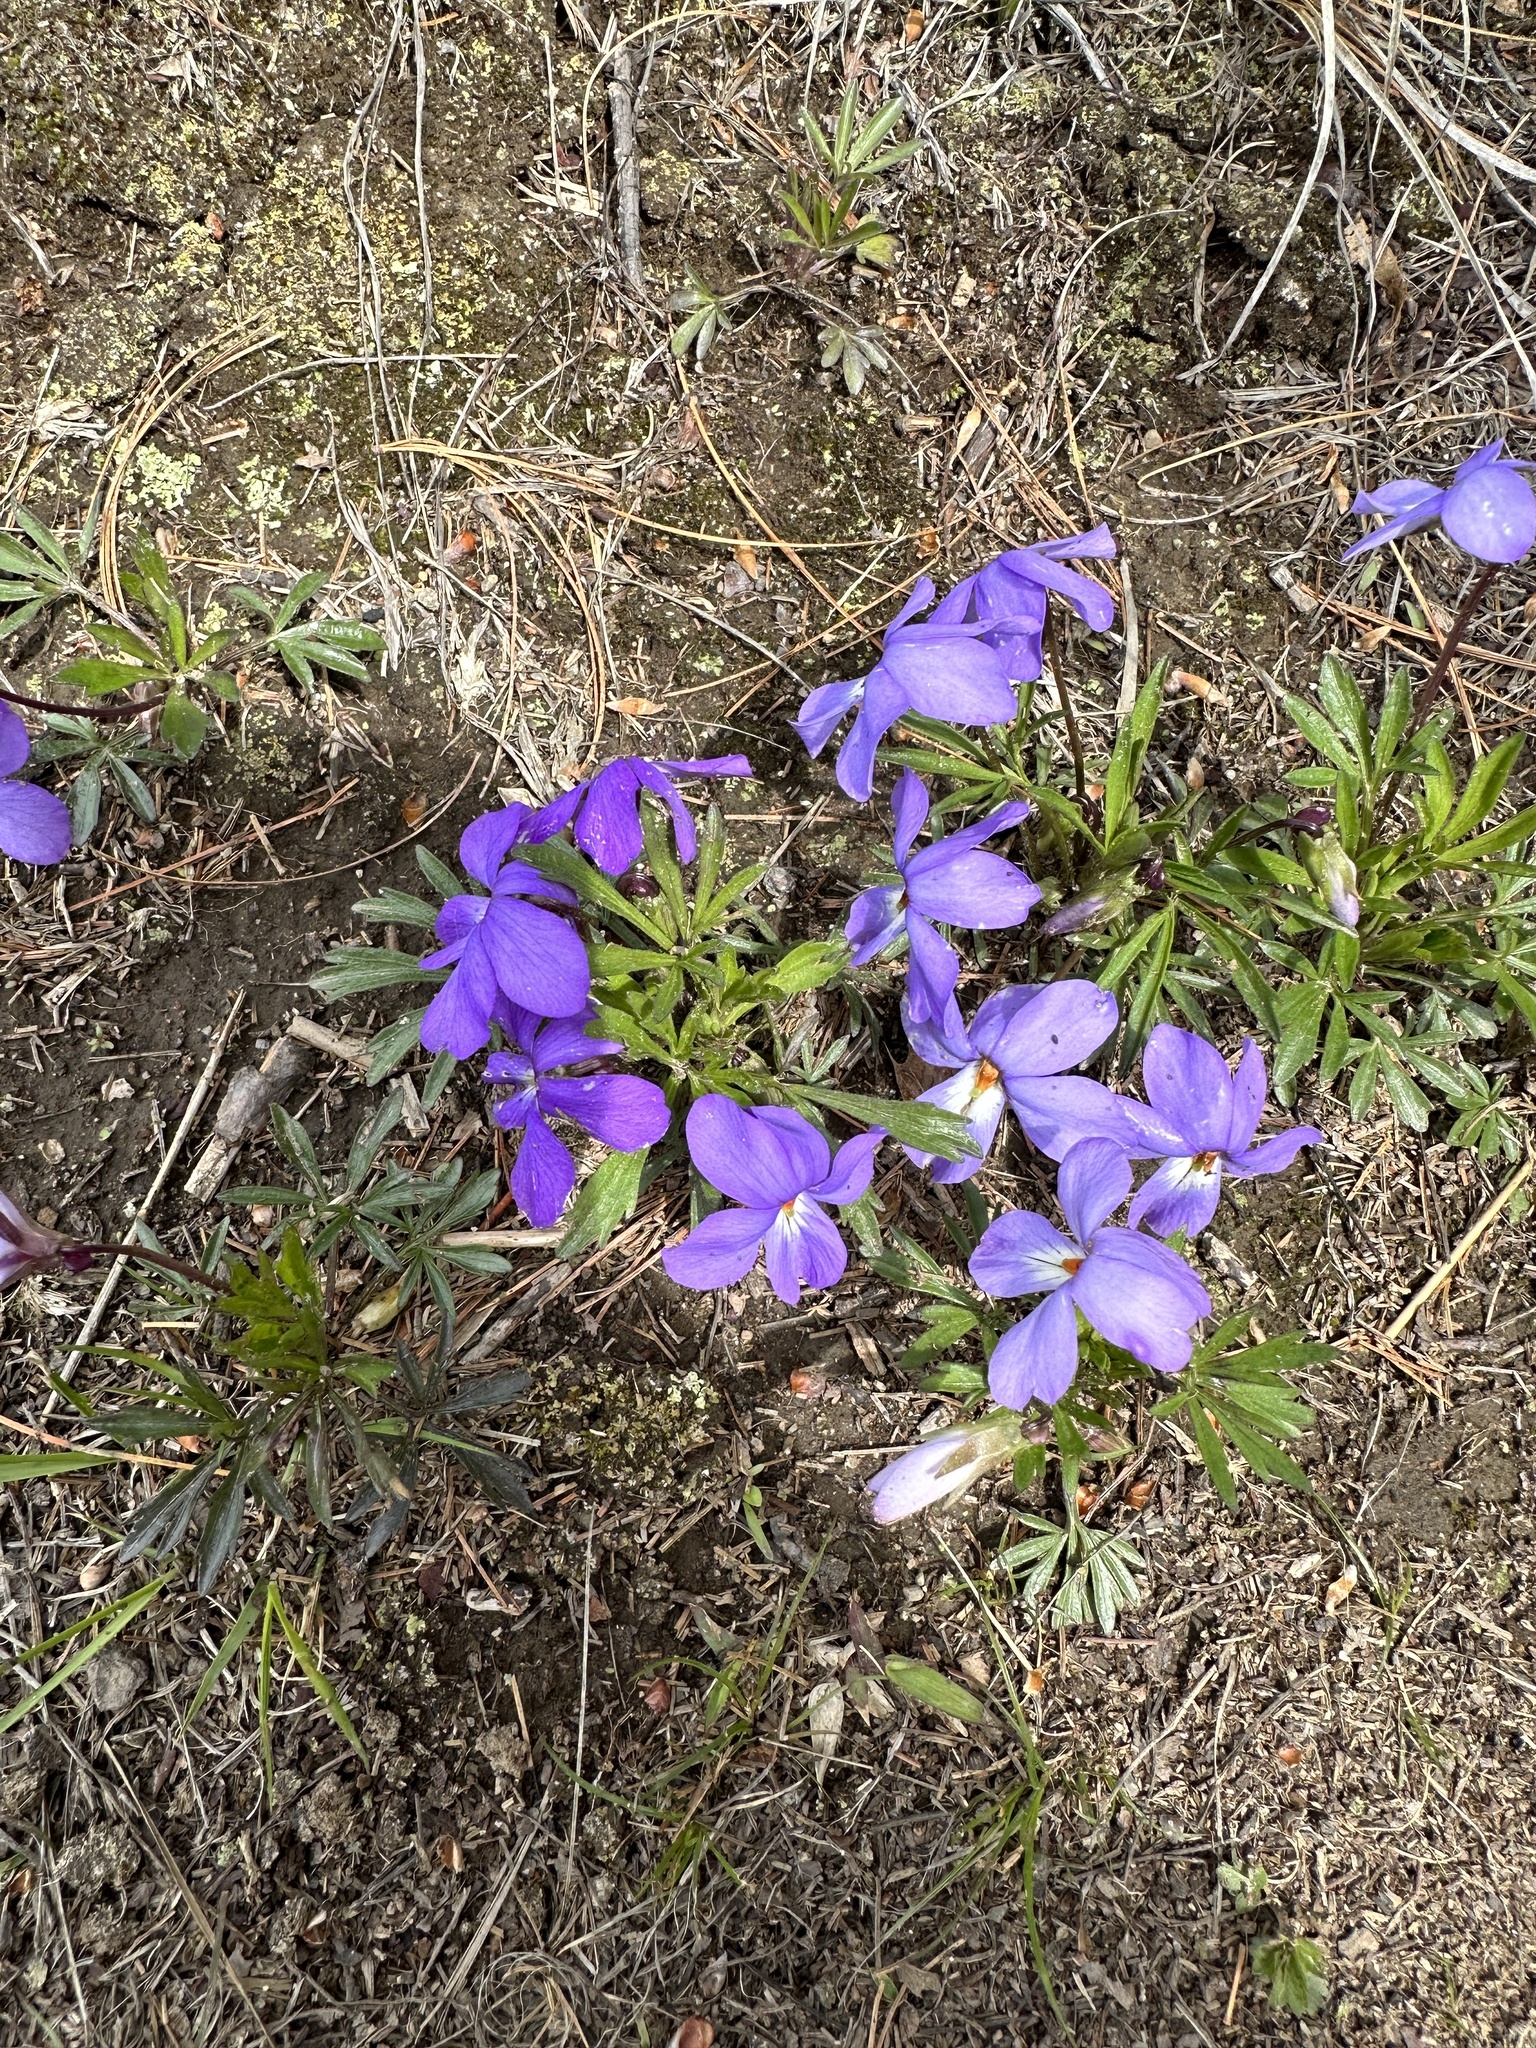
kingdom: Plantae
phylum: Tracheophyta
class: Magnoliopsida
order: Malpighiales
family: Violaceae
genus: Viola
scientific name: Viola pedata
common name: Pansy violet
